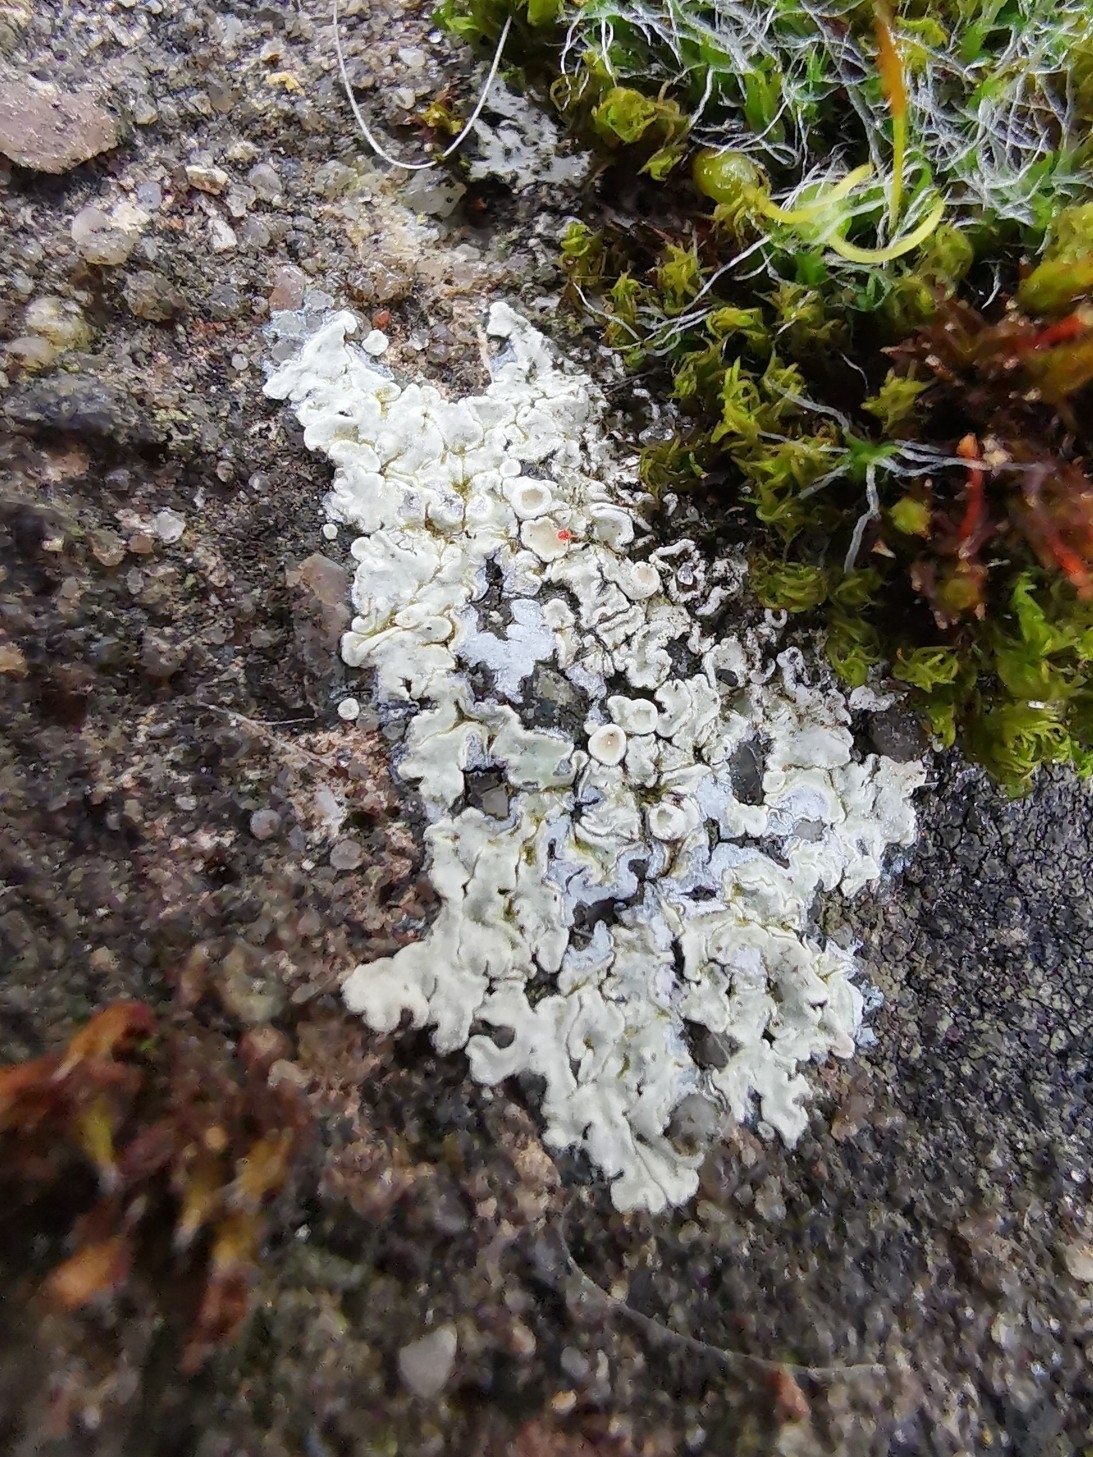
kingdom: Fungi
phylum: Ascomycota
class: Lecanoromycetes
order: Lecanorales
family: Lecanoraceae
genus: Protoparmeliopsis
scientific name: Protoparmeliopsis muralis
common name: Stonewall rim lichen
